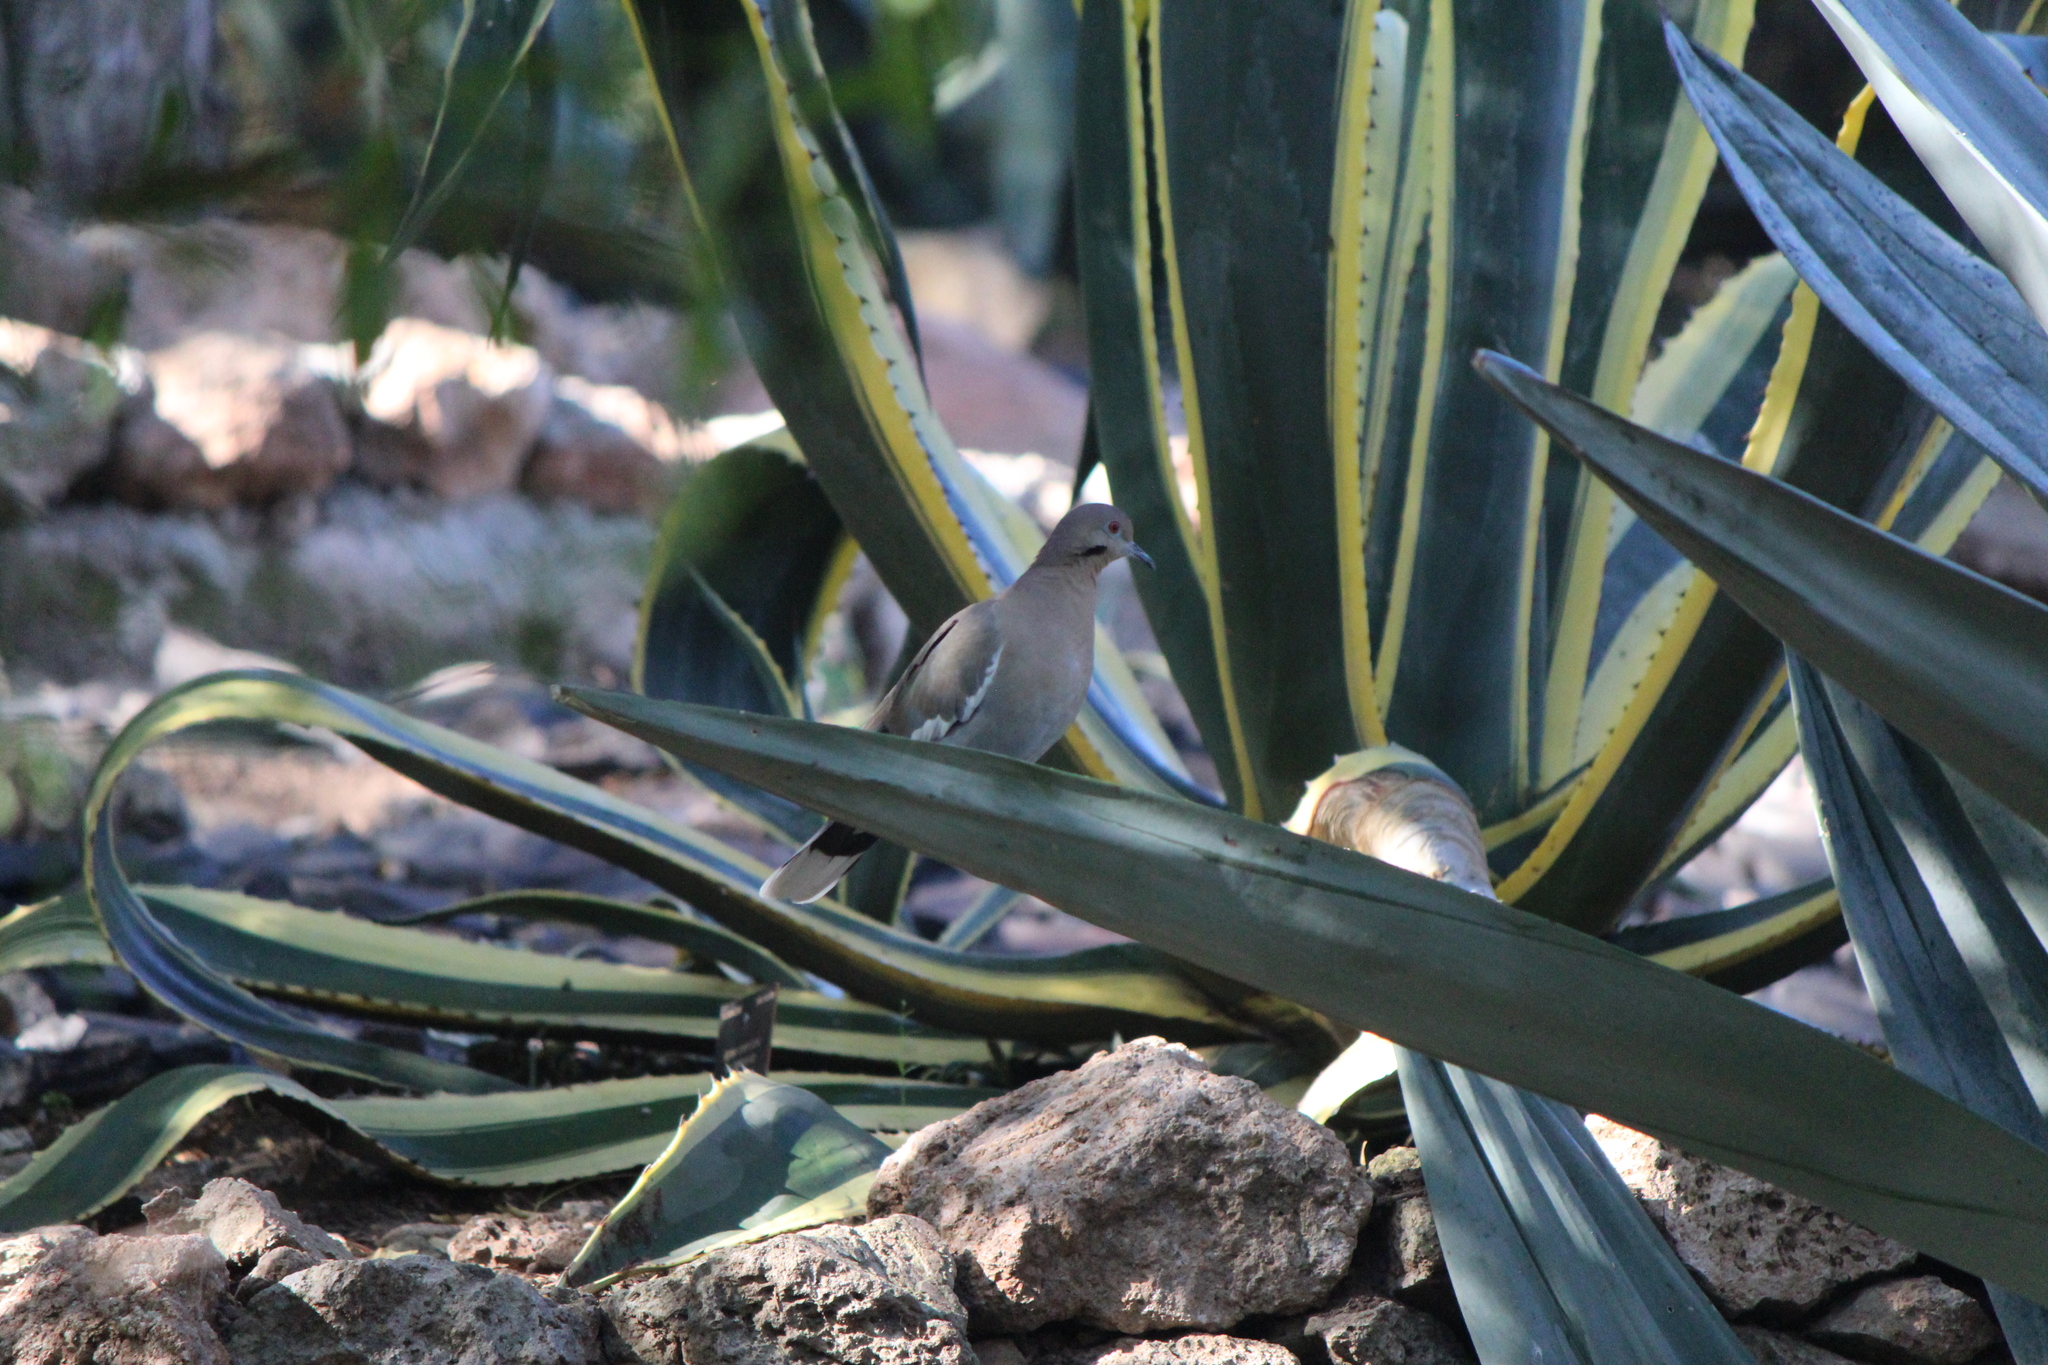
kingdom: Animalia
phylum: Chordata
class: Aves
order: Columbiformes
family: Columbidae
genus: Zenaida
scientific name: Zenaida asiatica
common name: White-winged dove
